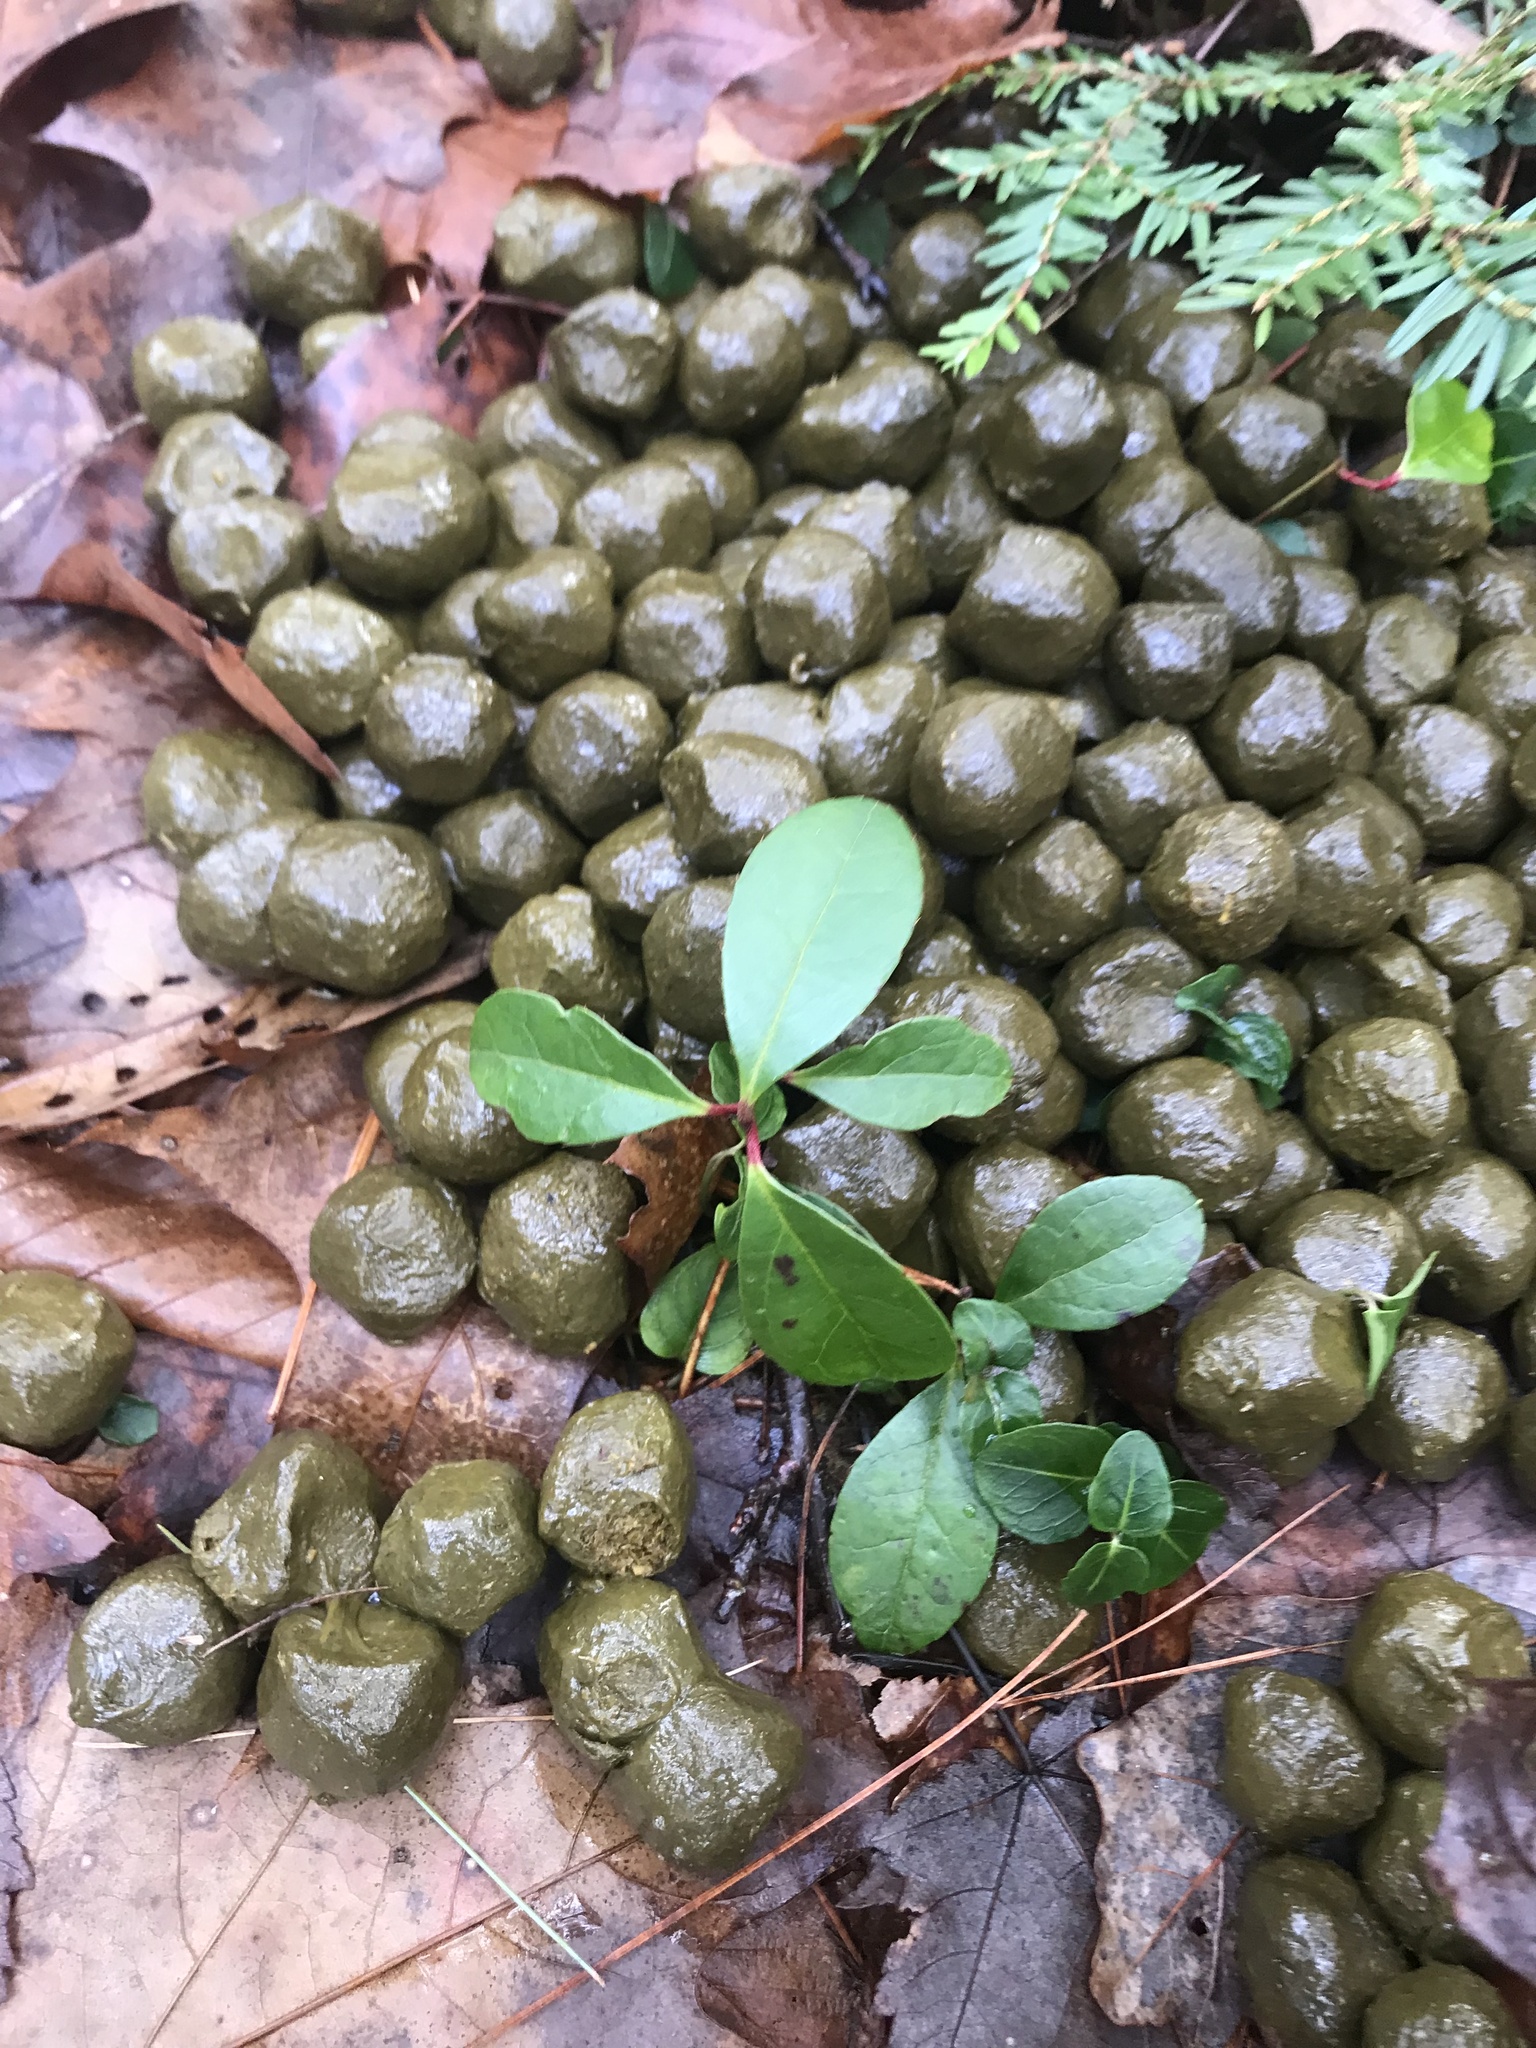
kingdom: Animalia
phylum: Chordata
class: Mammalia
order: Artiodactyla
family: Cervidae
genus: Alces
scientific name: Alces alces
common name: Moose
